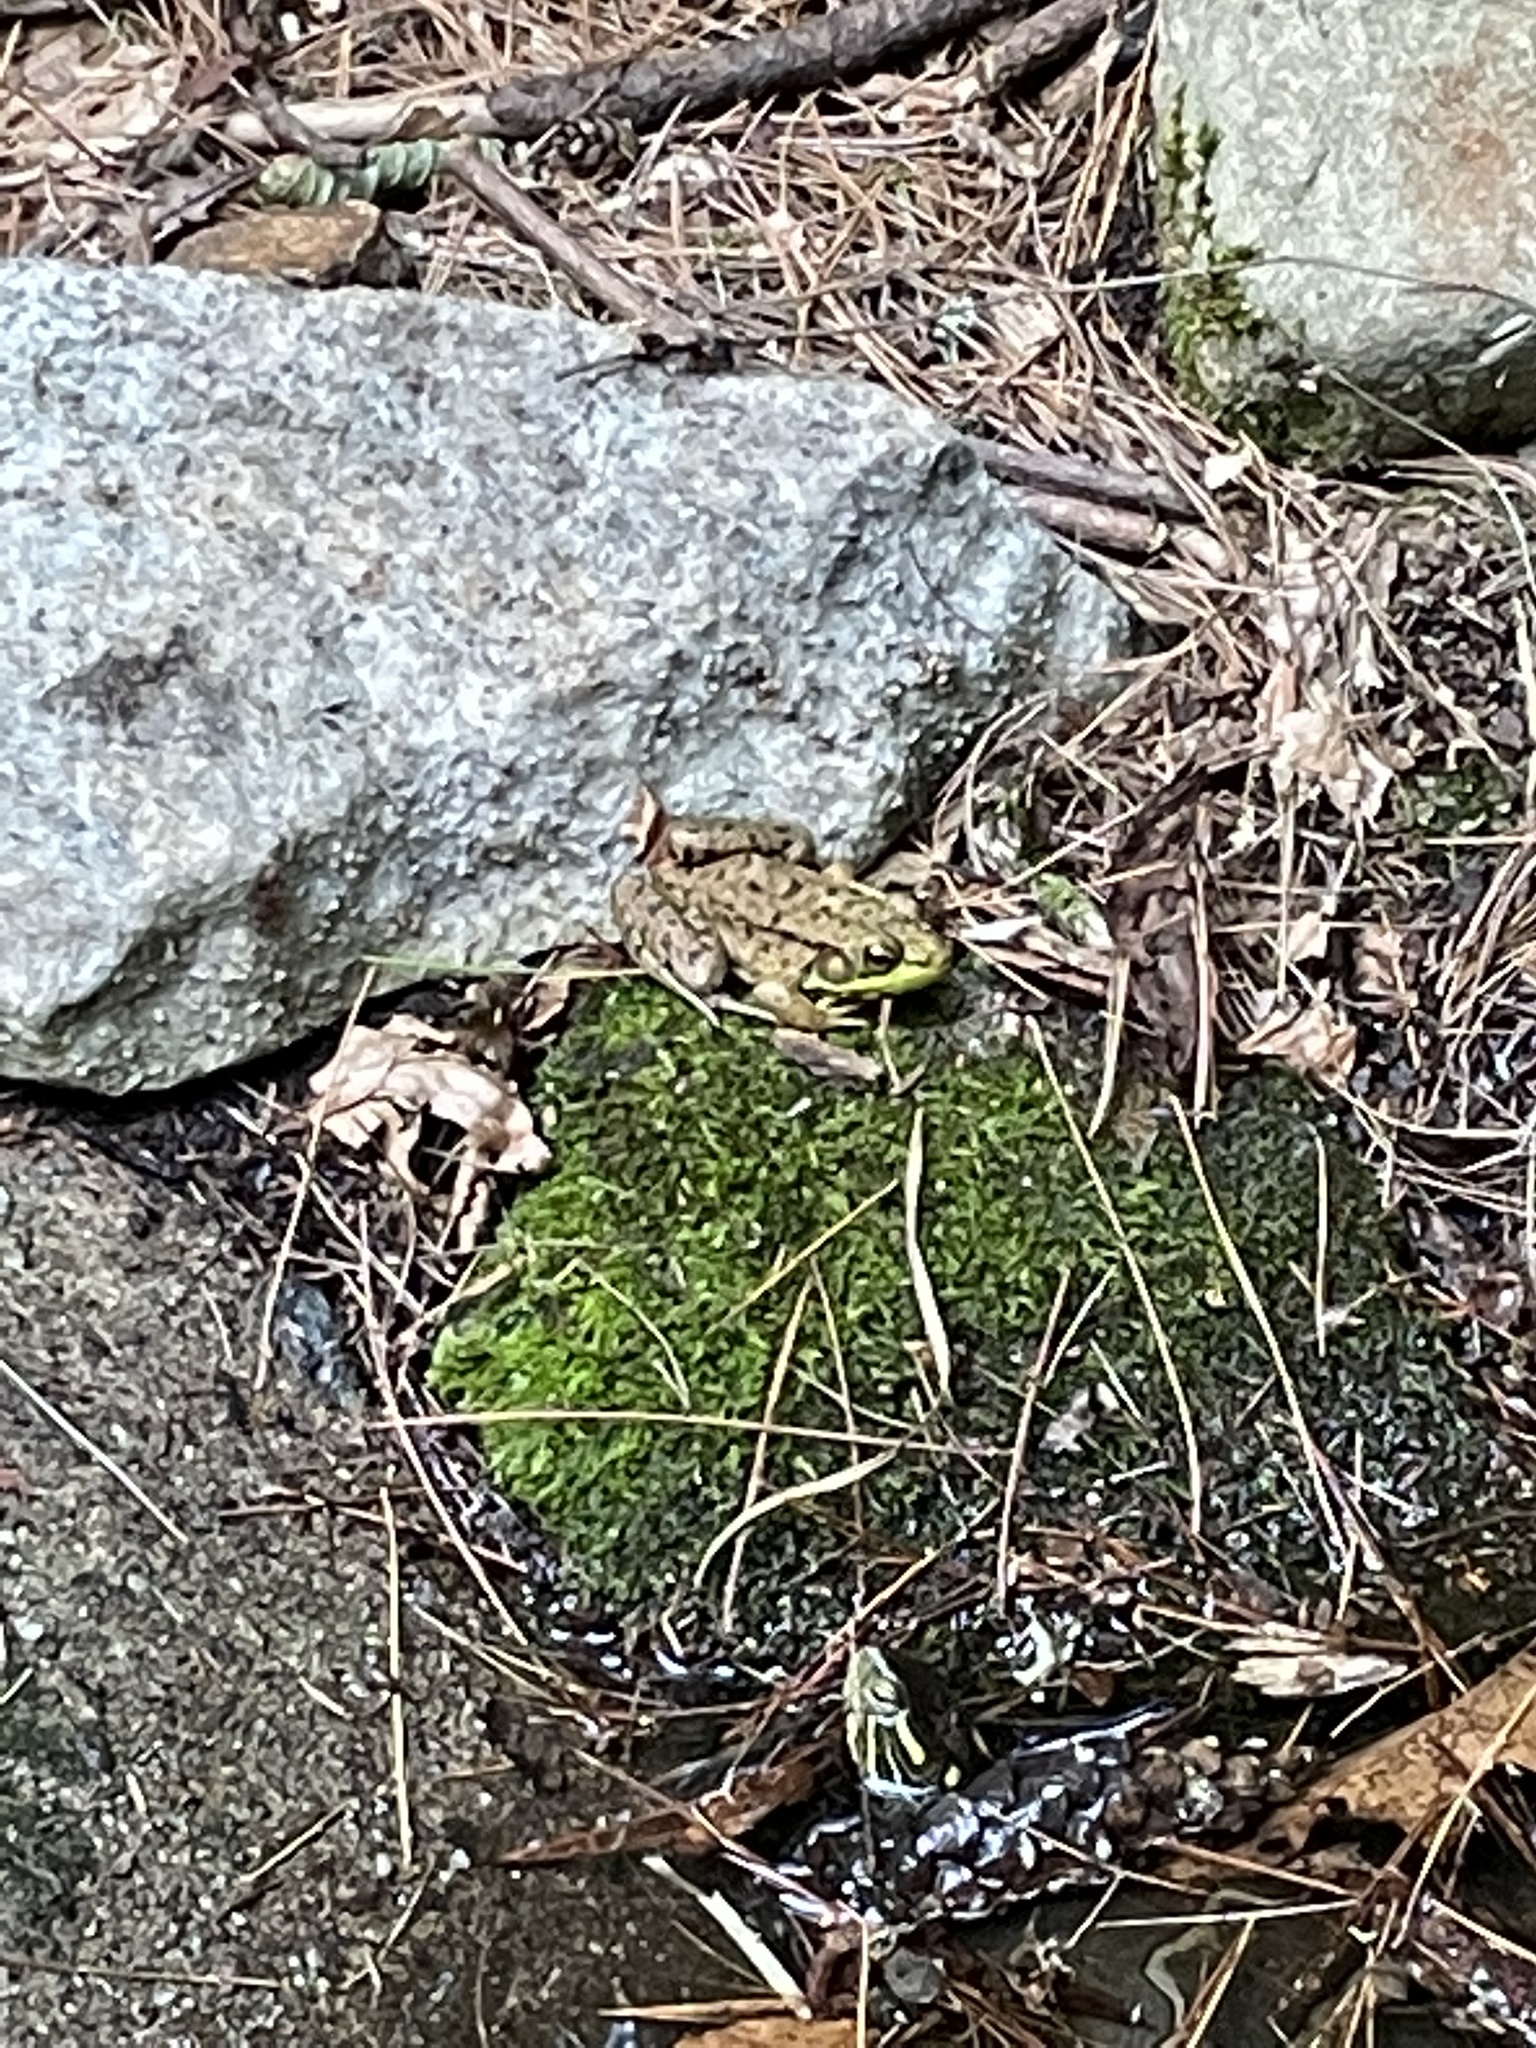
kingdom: Animalia
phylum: Chordata
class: Amphibia
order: Anura
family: Ranidae
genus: Lithobates
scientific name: Lithobates clamitans
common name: Green frog
